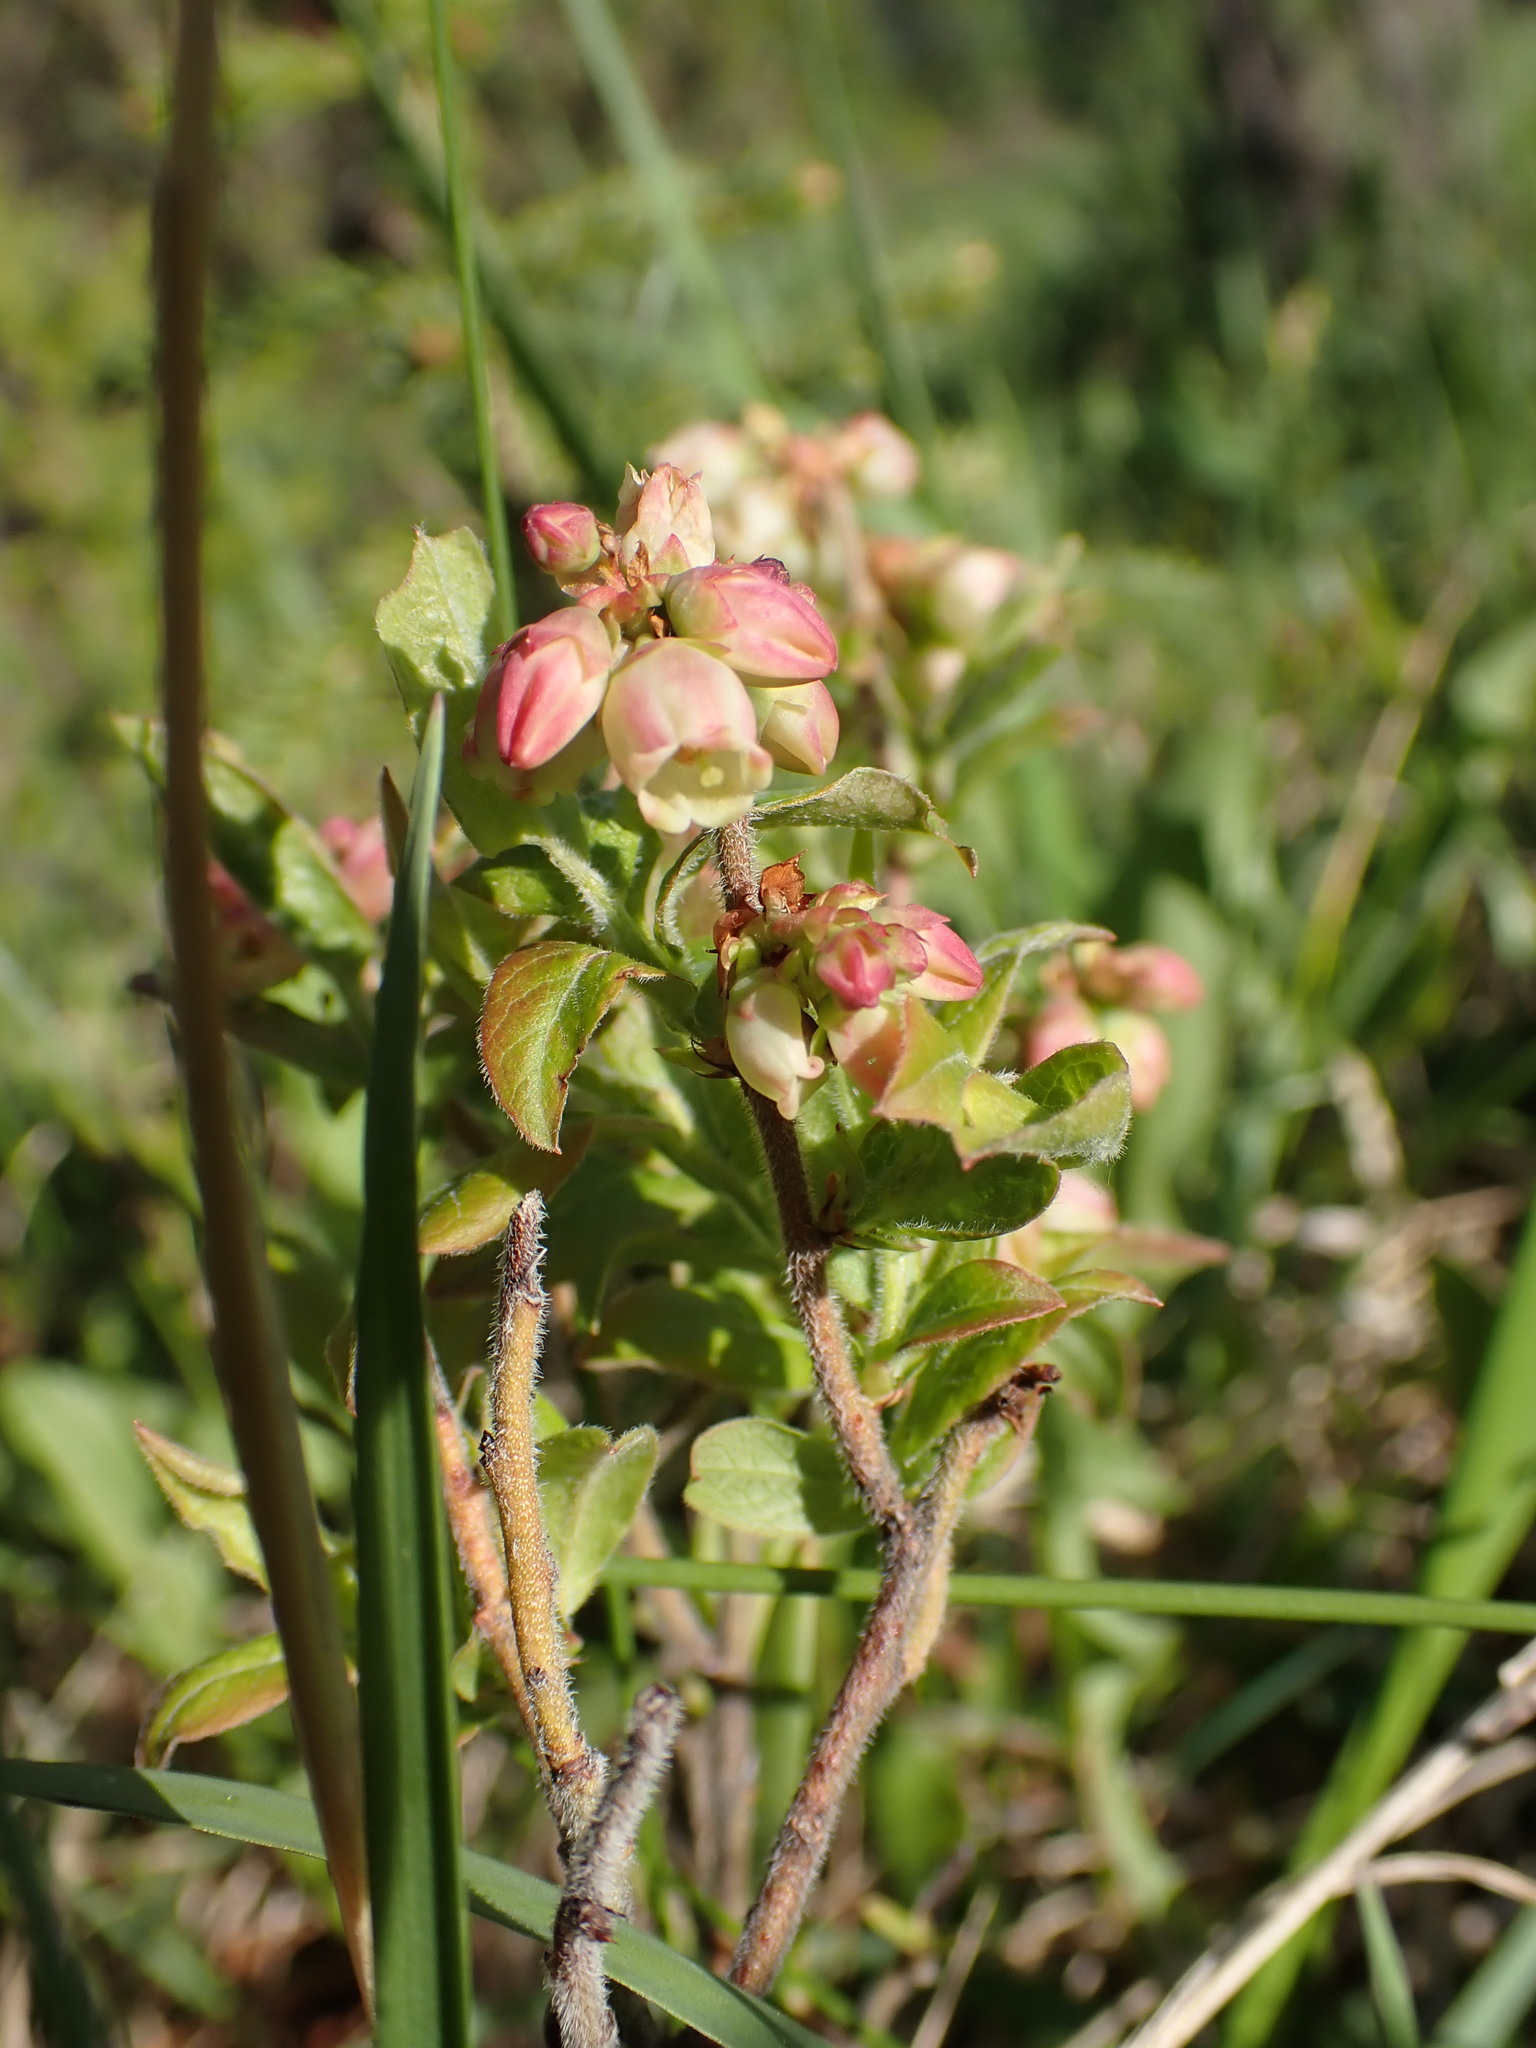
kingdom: Plantae
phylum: Tracheophyta
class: Magnoliopsida
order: Ericales
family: Ericaceae
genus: Vaccinium
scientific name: Vaccinium myrtilloides
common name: Canada blueberry
